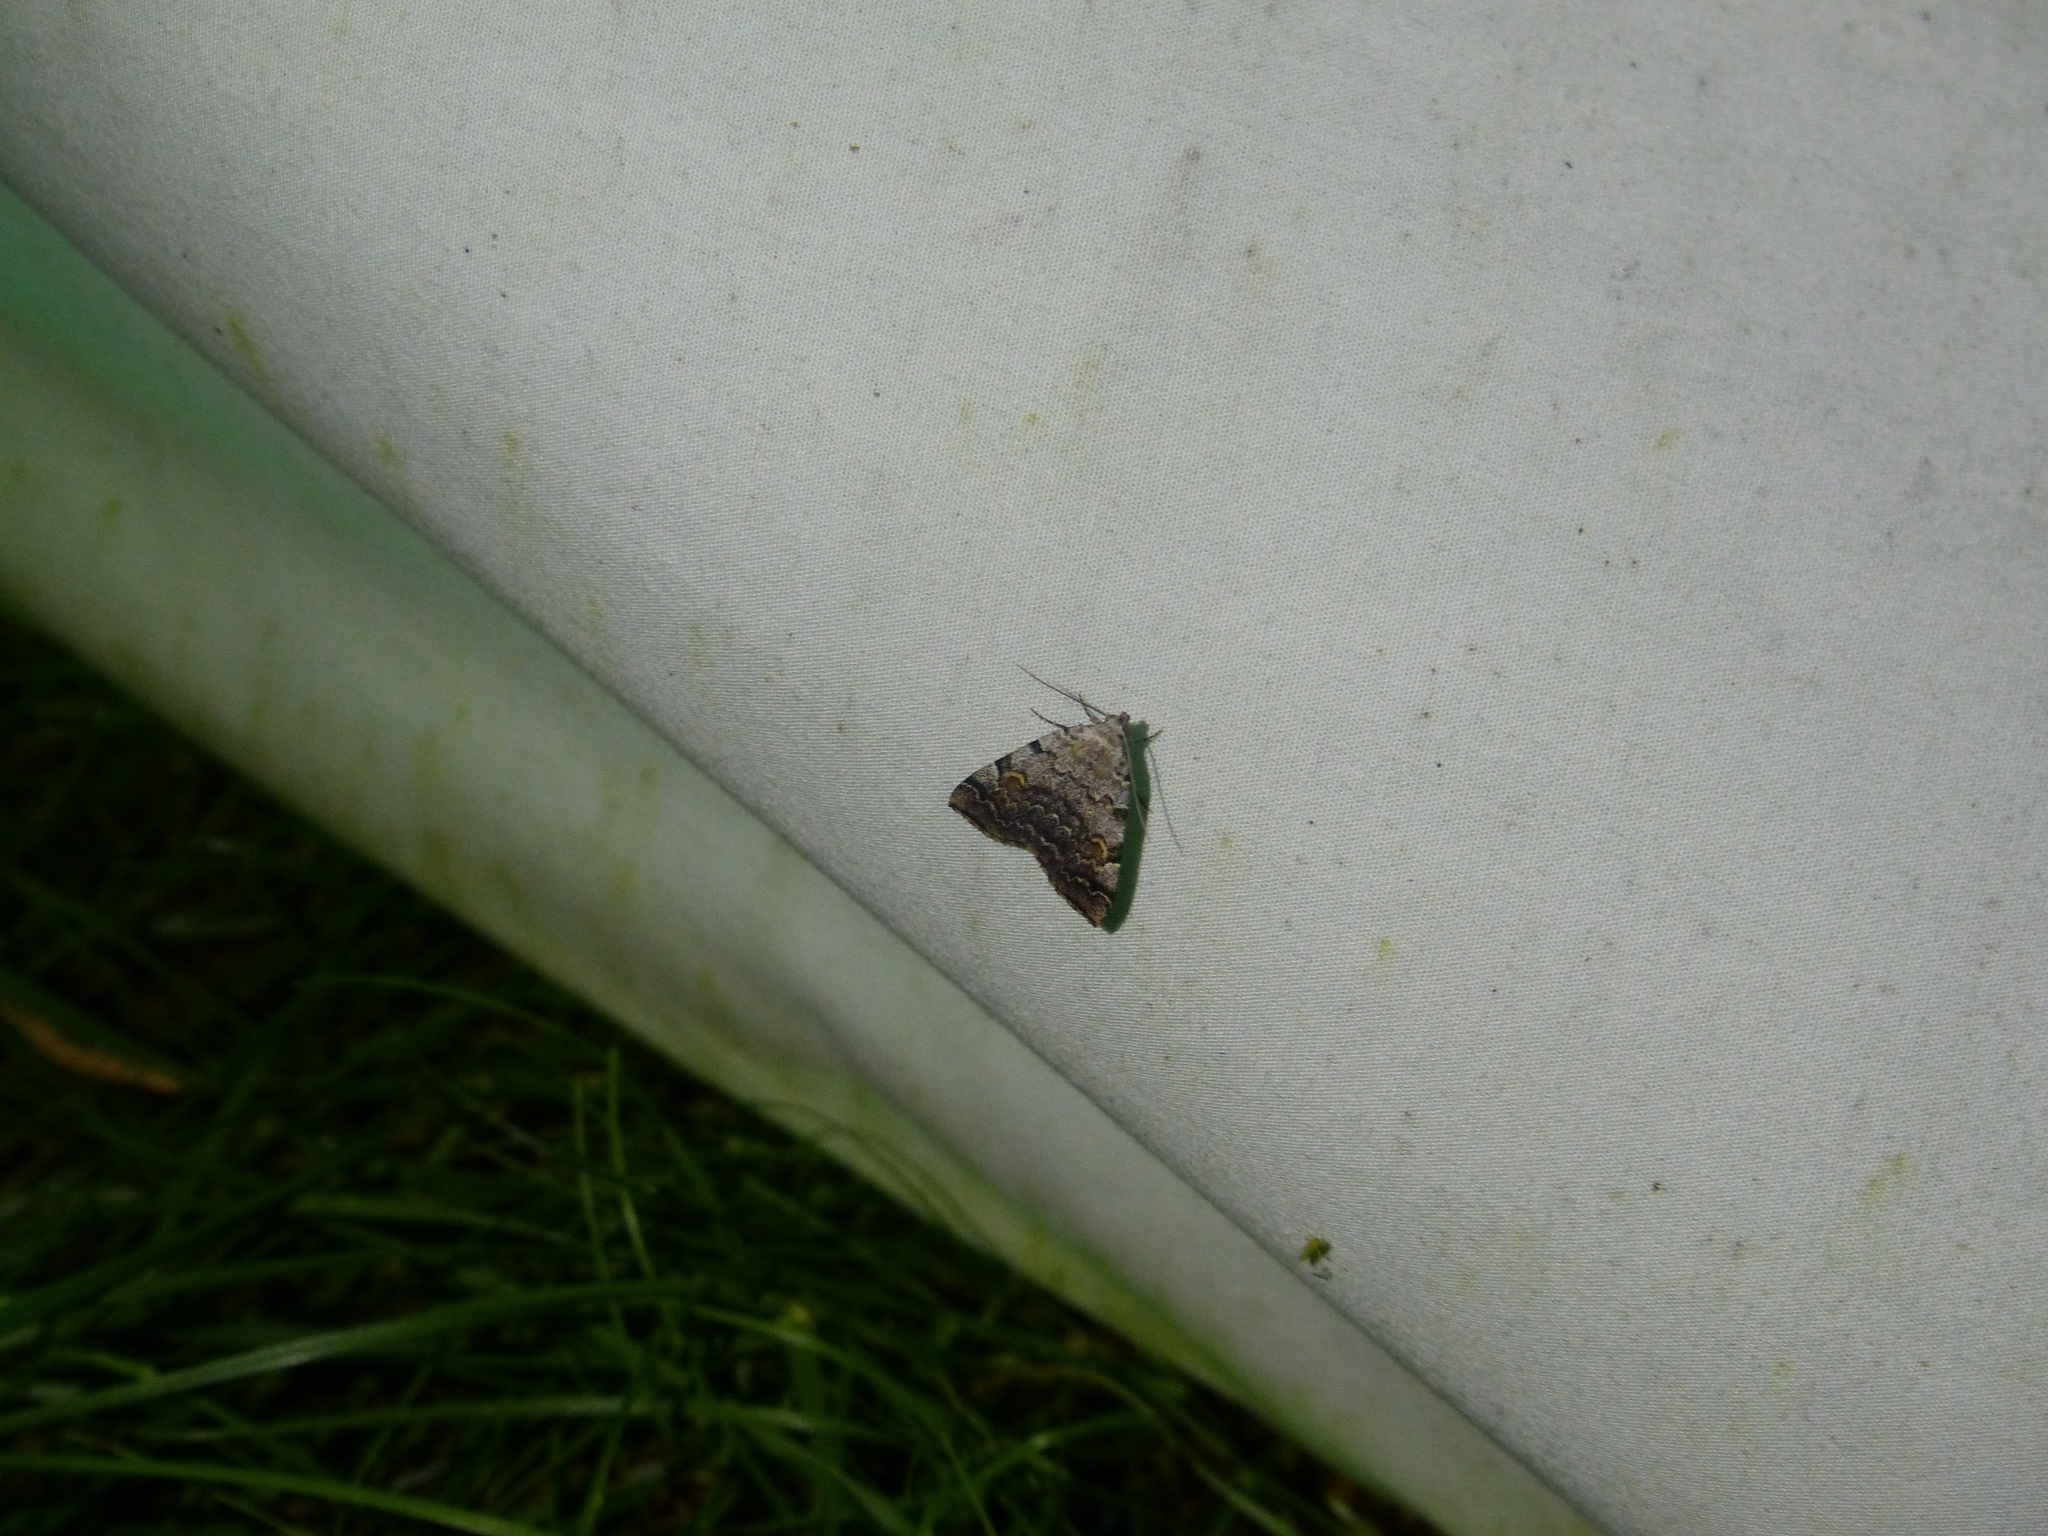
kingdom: Animalia
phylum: Arthropoda
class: Insecta
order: Lepidoptera
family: Erebidae
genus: Idia
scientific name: Idia americalis
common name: American idia moth
